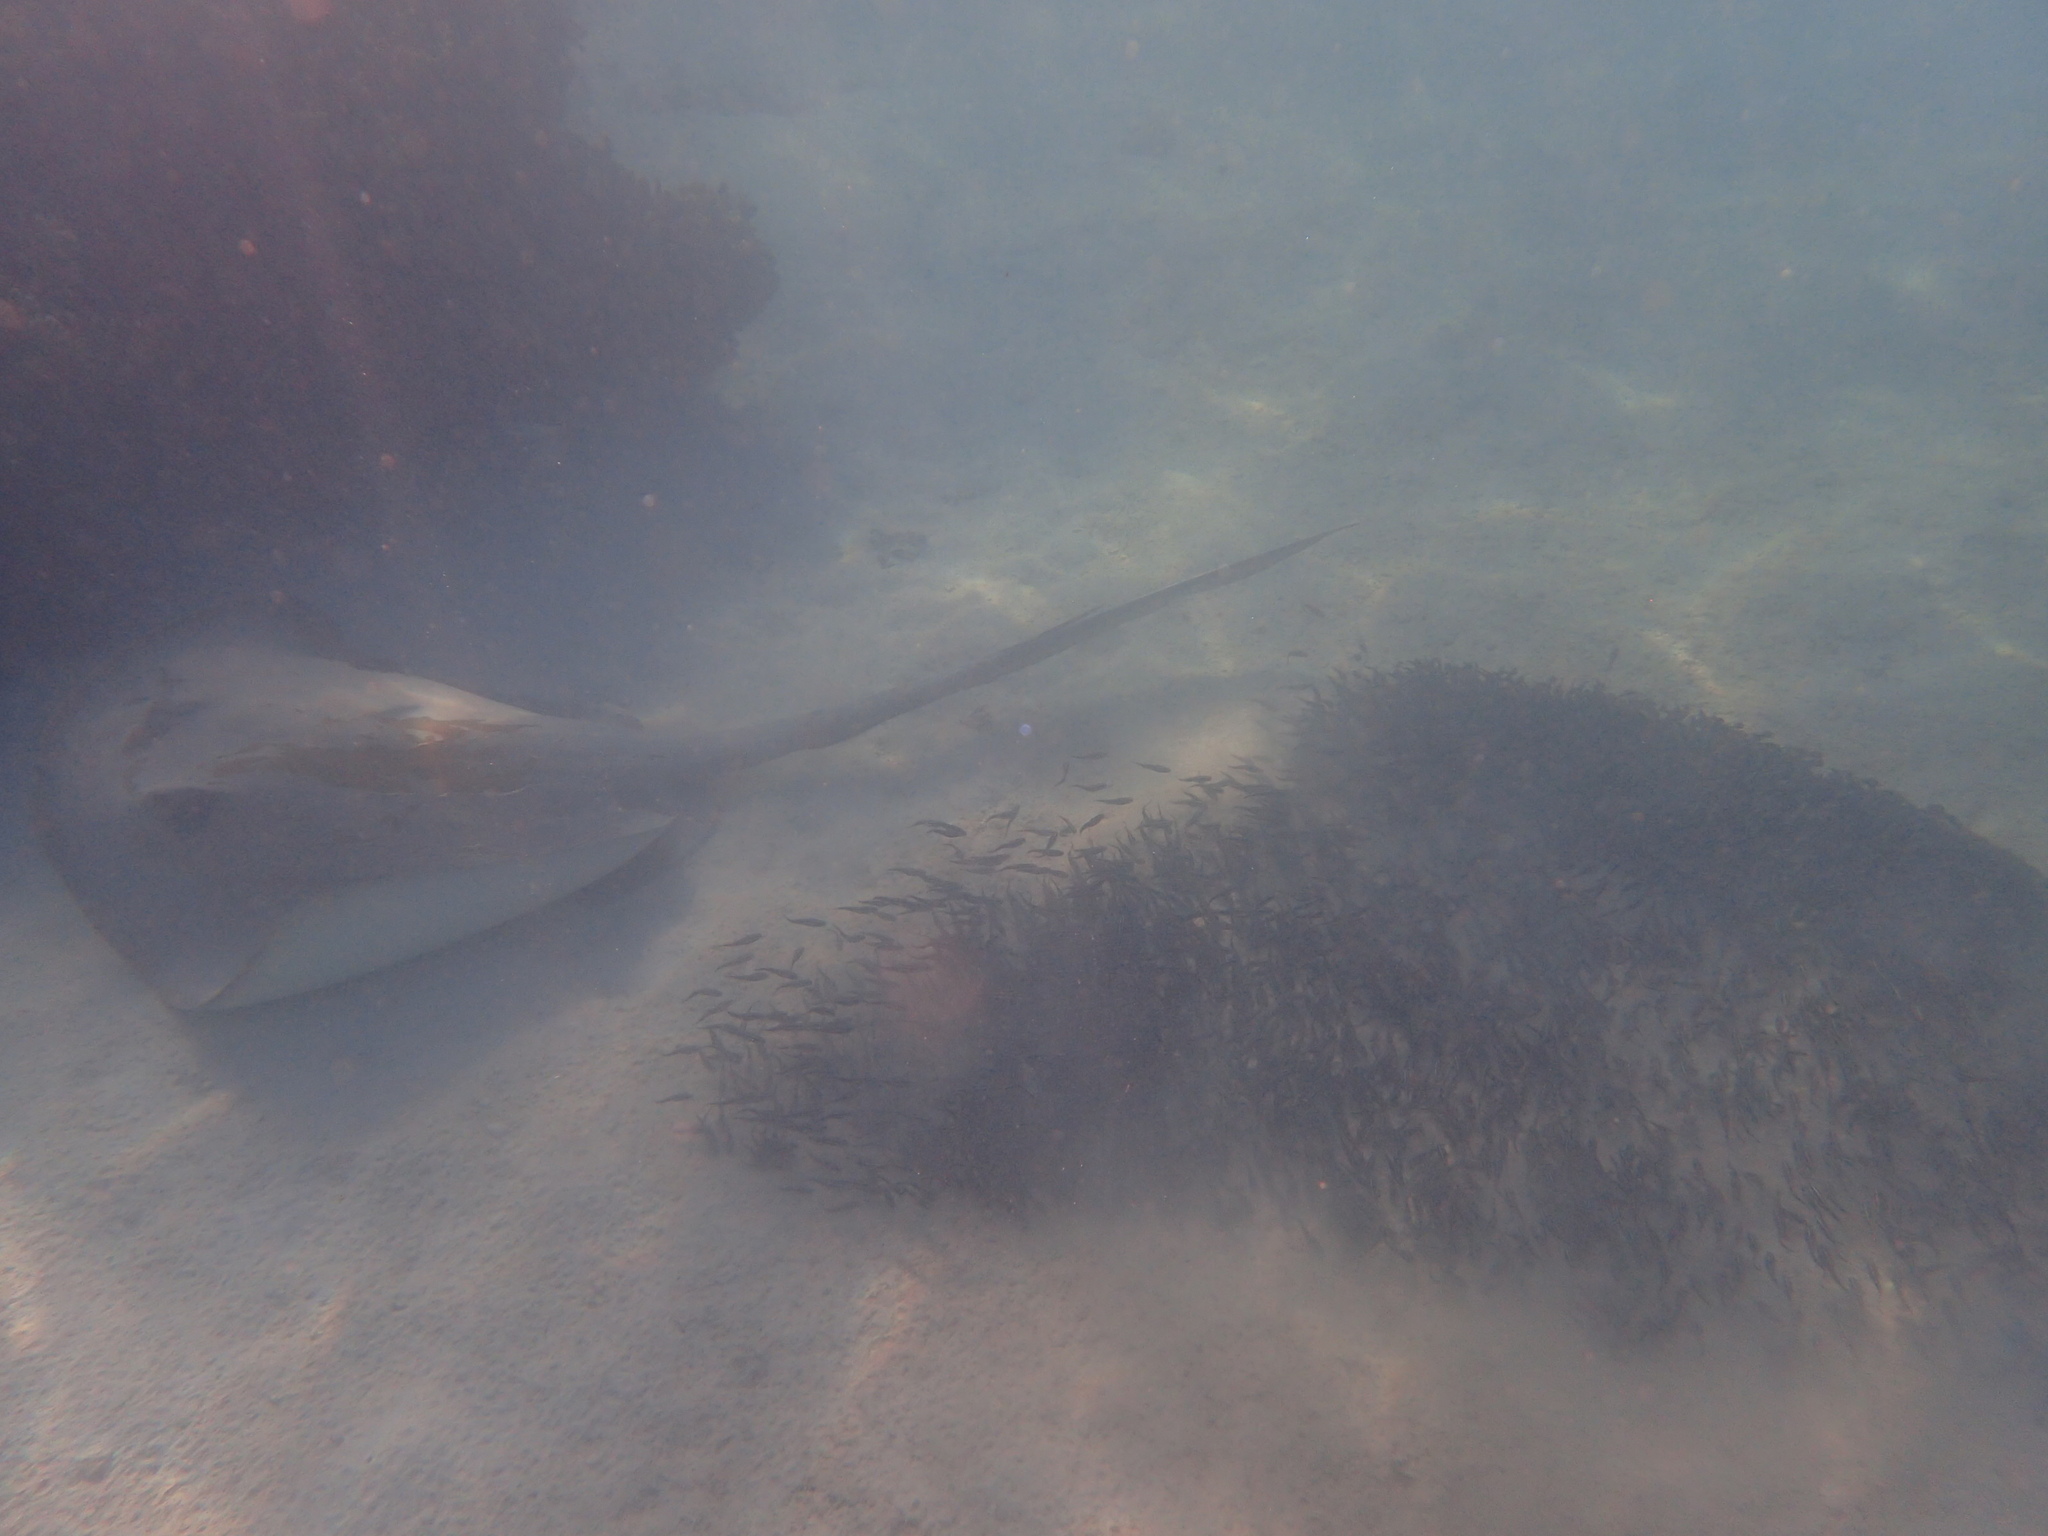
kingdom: Animalia
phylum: Chordata
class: Elasmobranchii
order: Myliobatiformes
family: Dasyatidae
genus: Pastinachus
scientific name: Pastinachus ater
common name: Banana-tail ray
